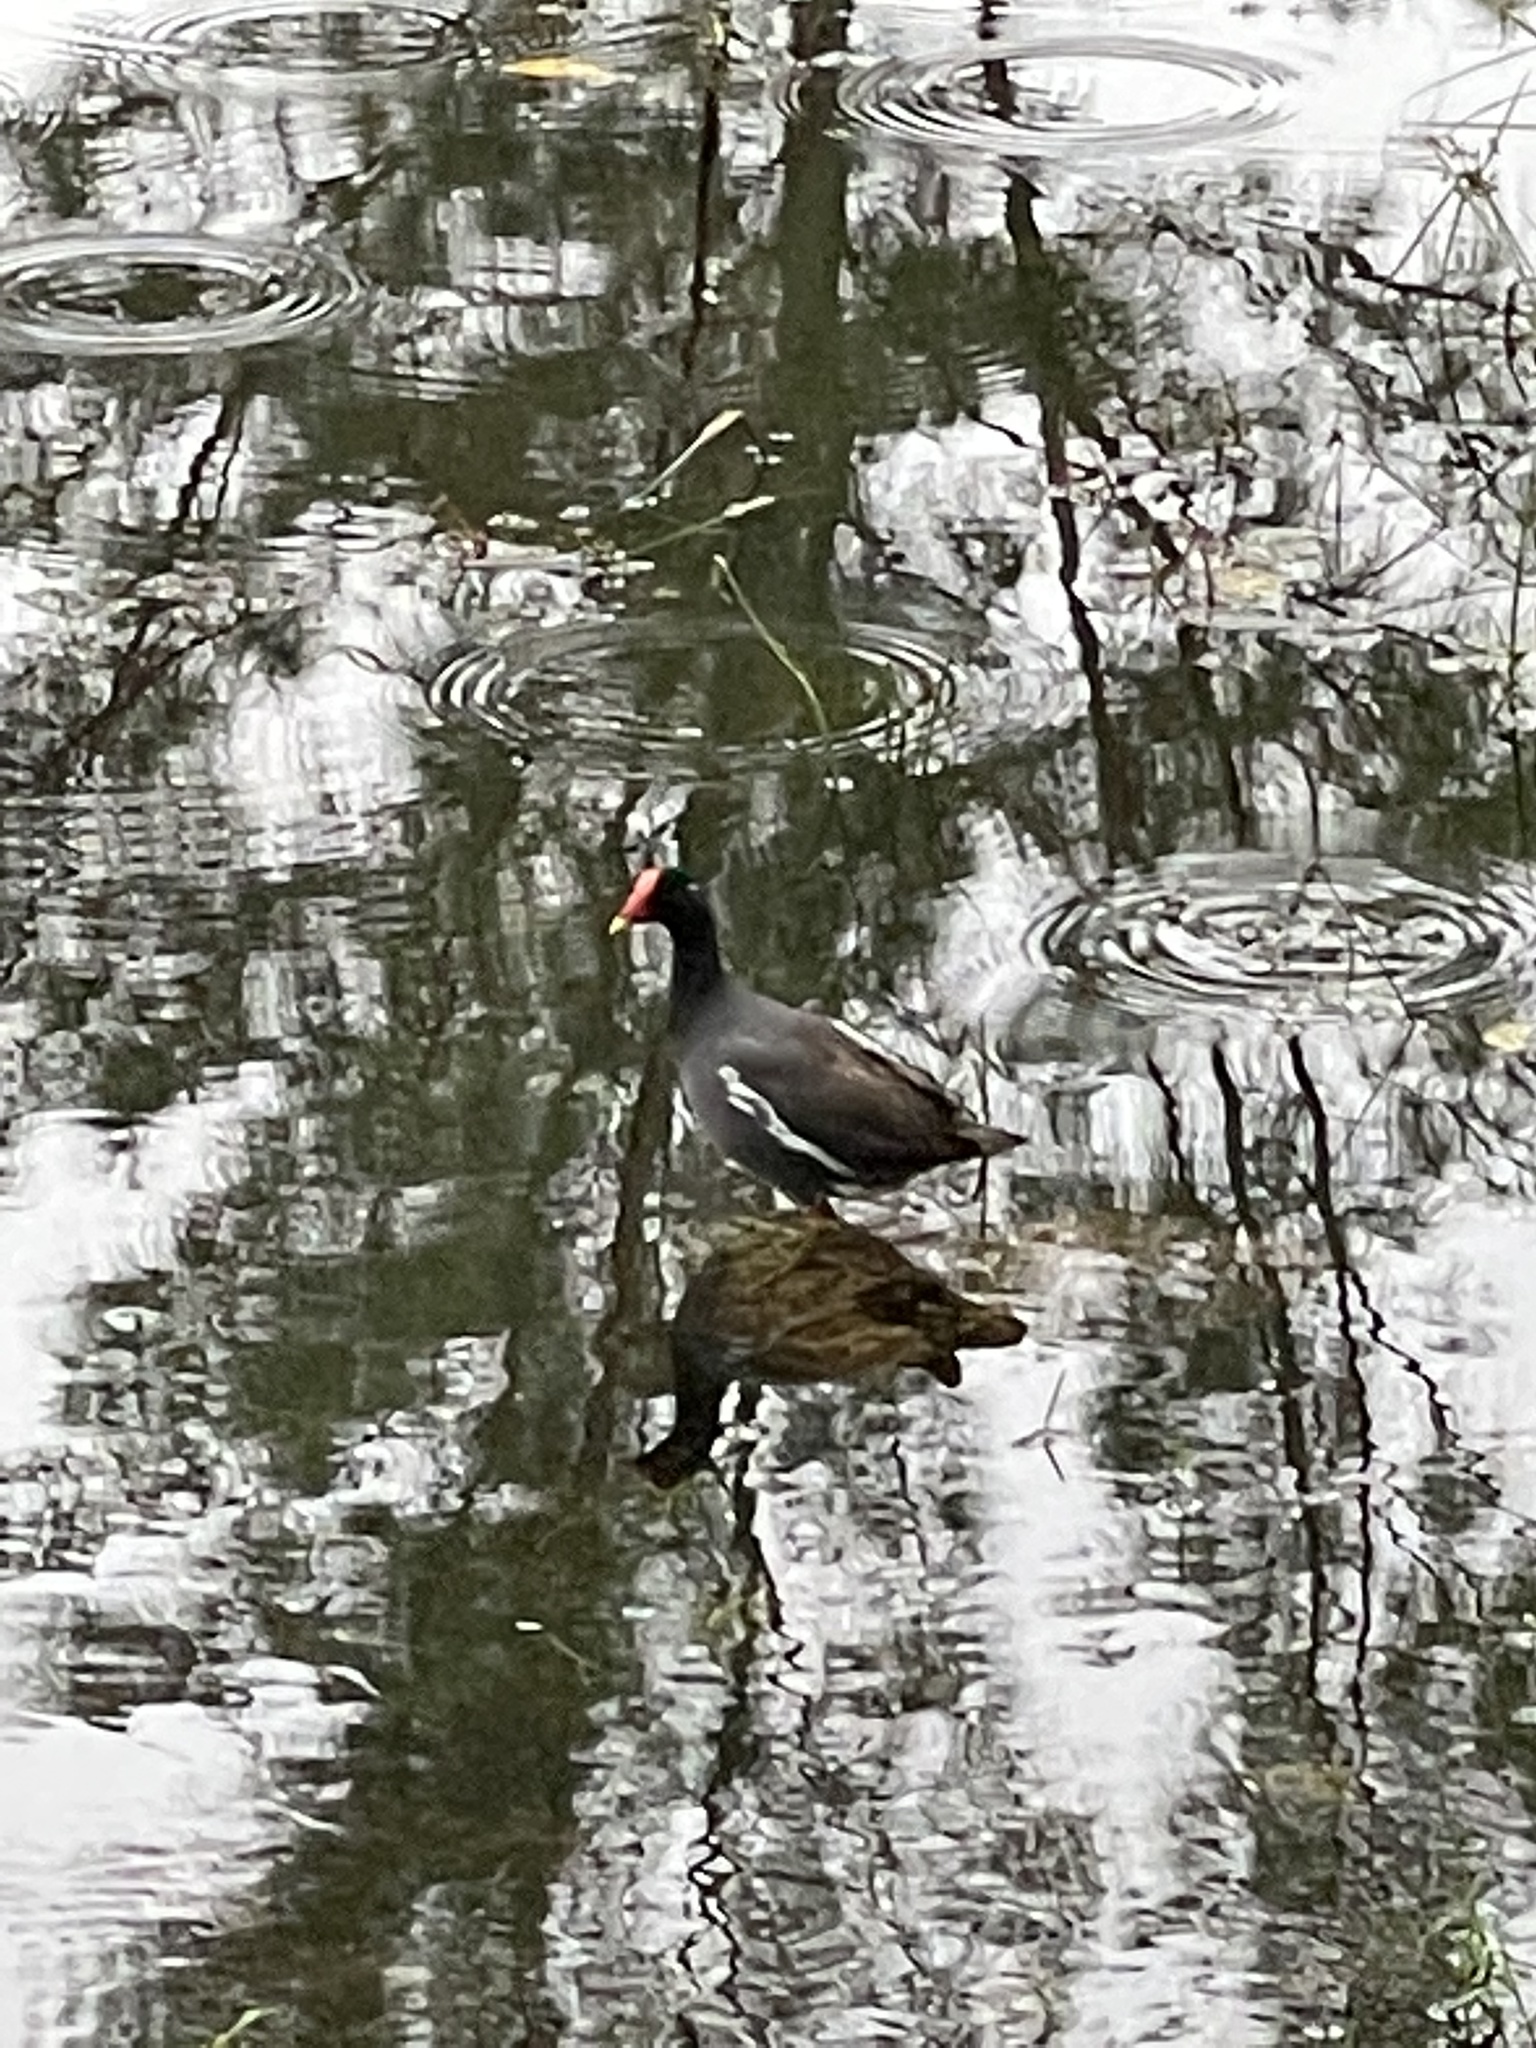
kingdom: Animalia
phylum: Chordata
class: Aves
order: Gruiformes
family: Rallidae
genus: Gallinula
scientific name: Gallinula chloropus
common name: Common moorhen
